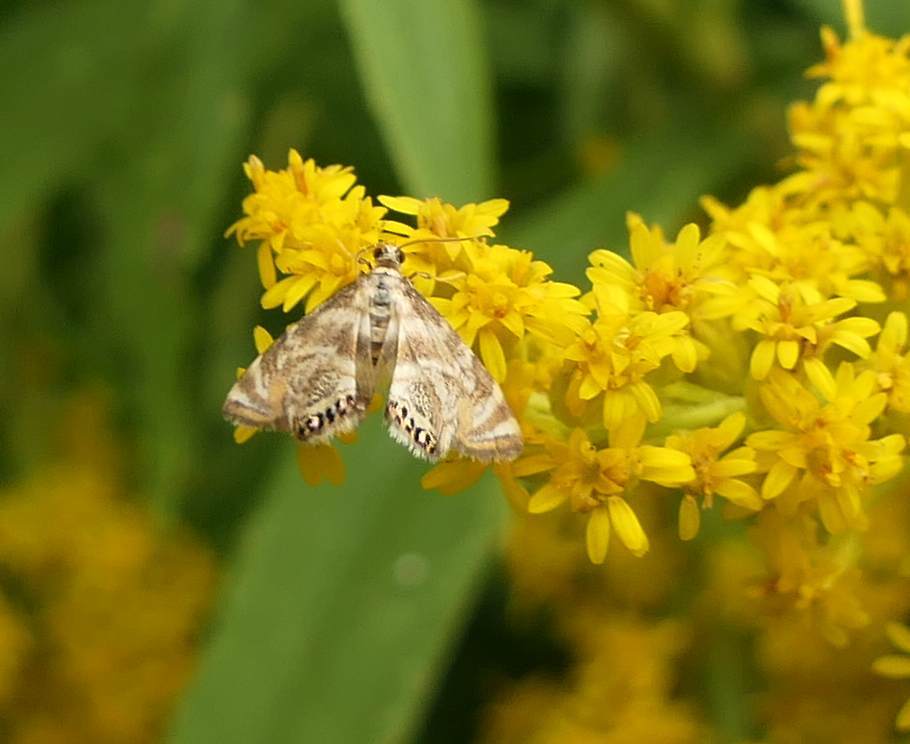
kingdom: Animalia
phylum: Arthropoda
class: Insecta
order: Lepidoptera
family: Crambidae
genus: Petrophila
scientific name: Petrophila canadensis
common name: Canadian petrophila
